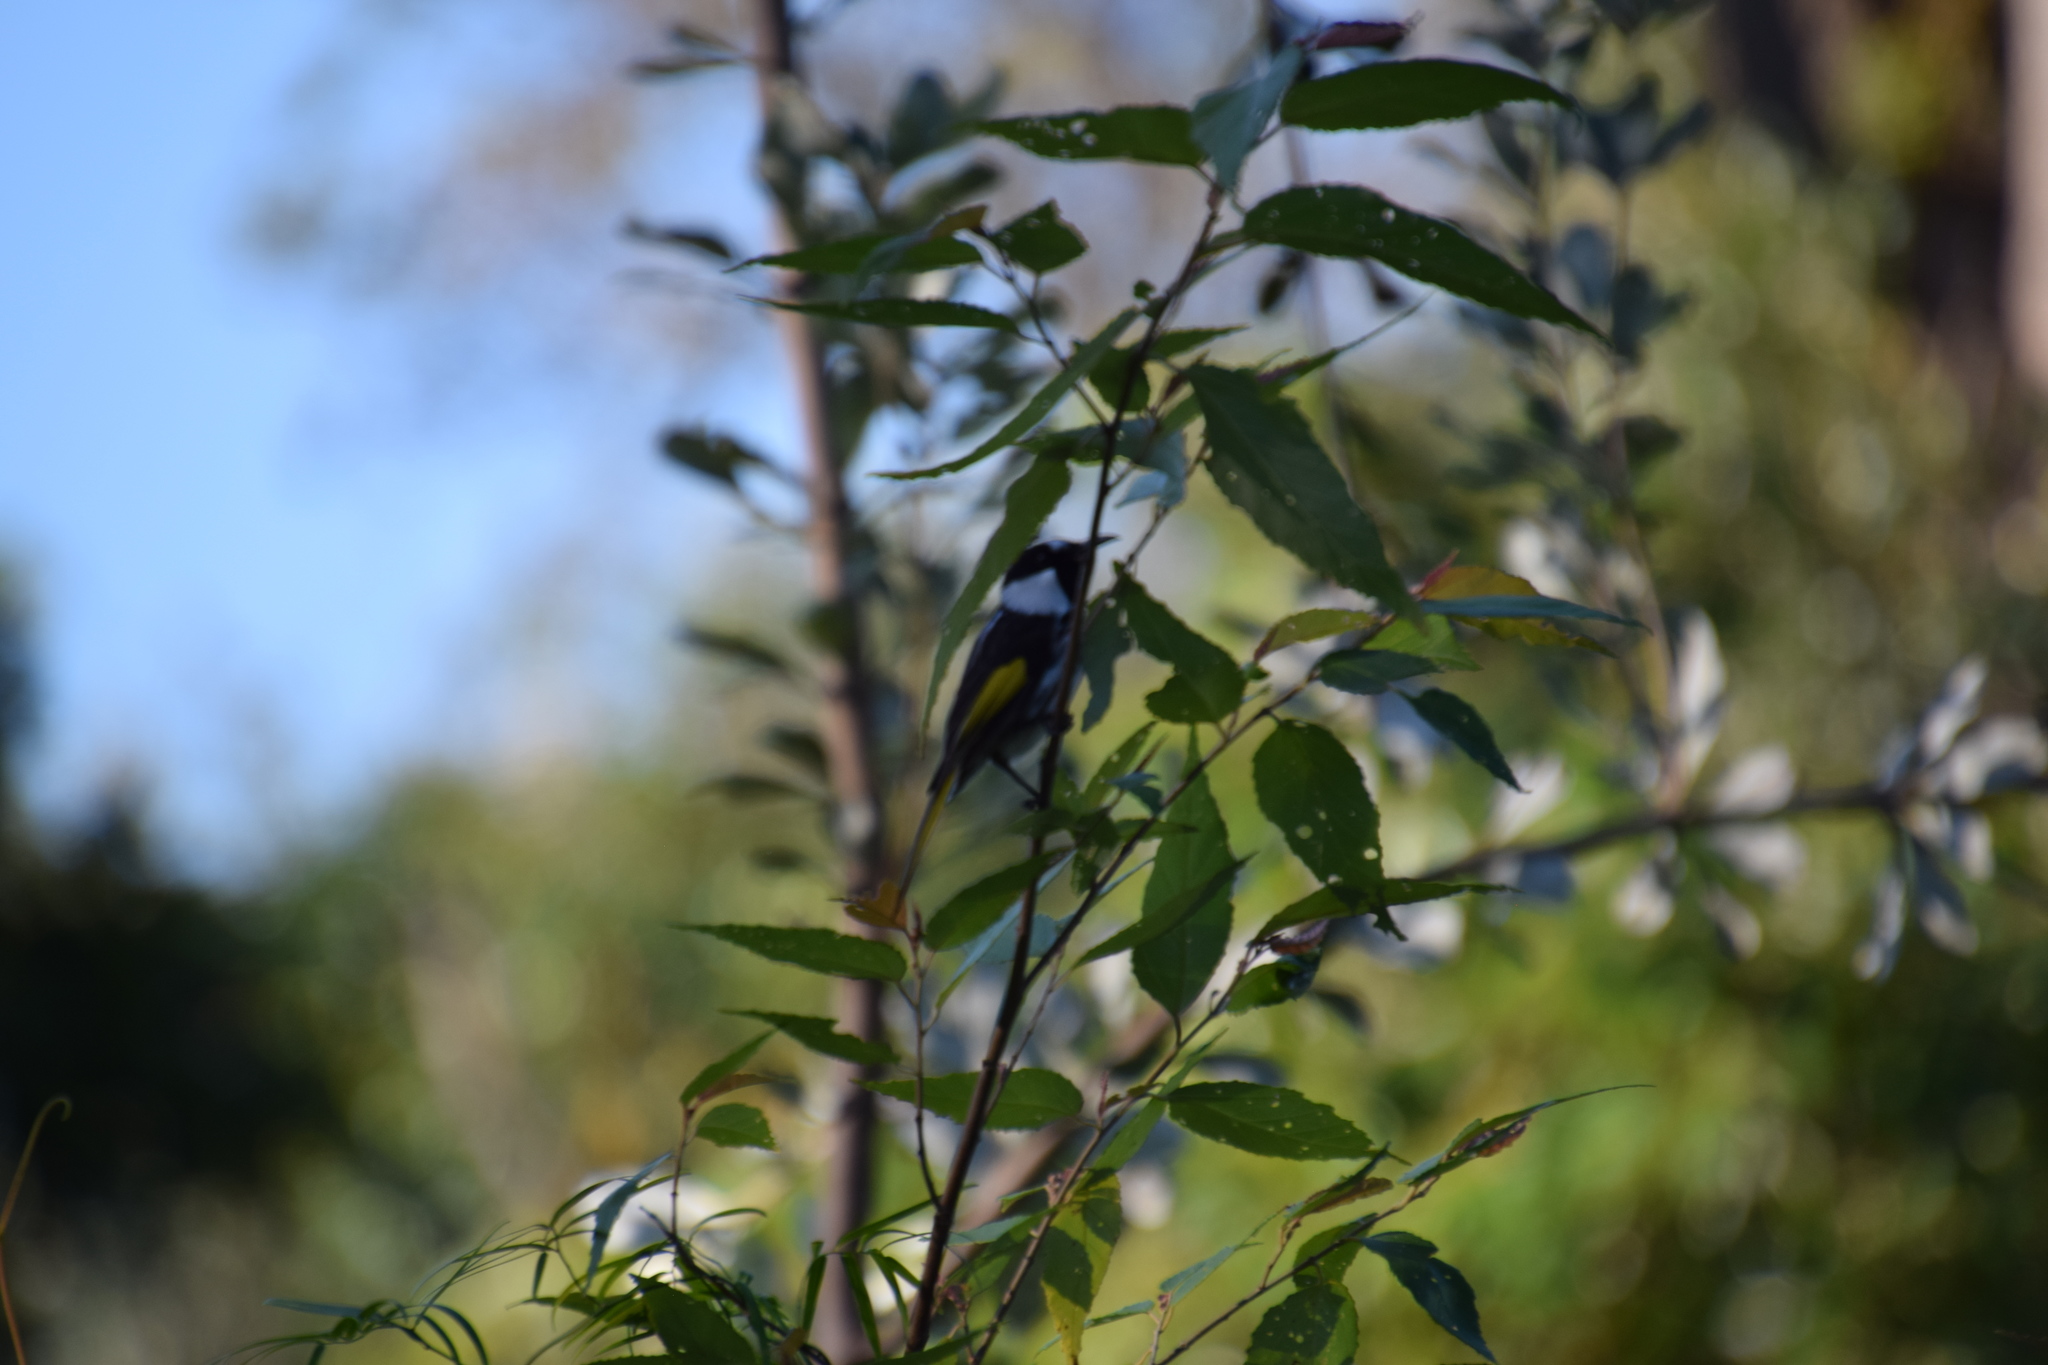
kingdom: Animalia
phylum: Chordata
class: Aves
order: Passeriformes
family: Meliphagidae
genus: Phylidonyris
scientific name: Phylidonyris niger
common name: White-cheeked honeyeater
